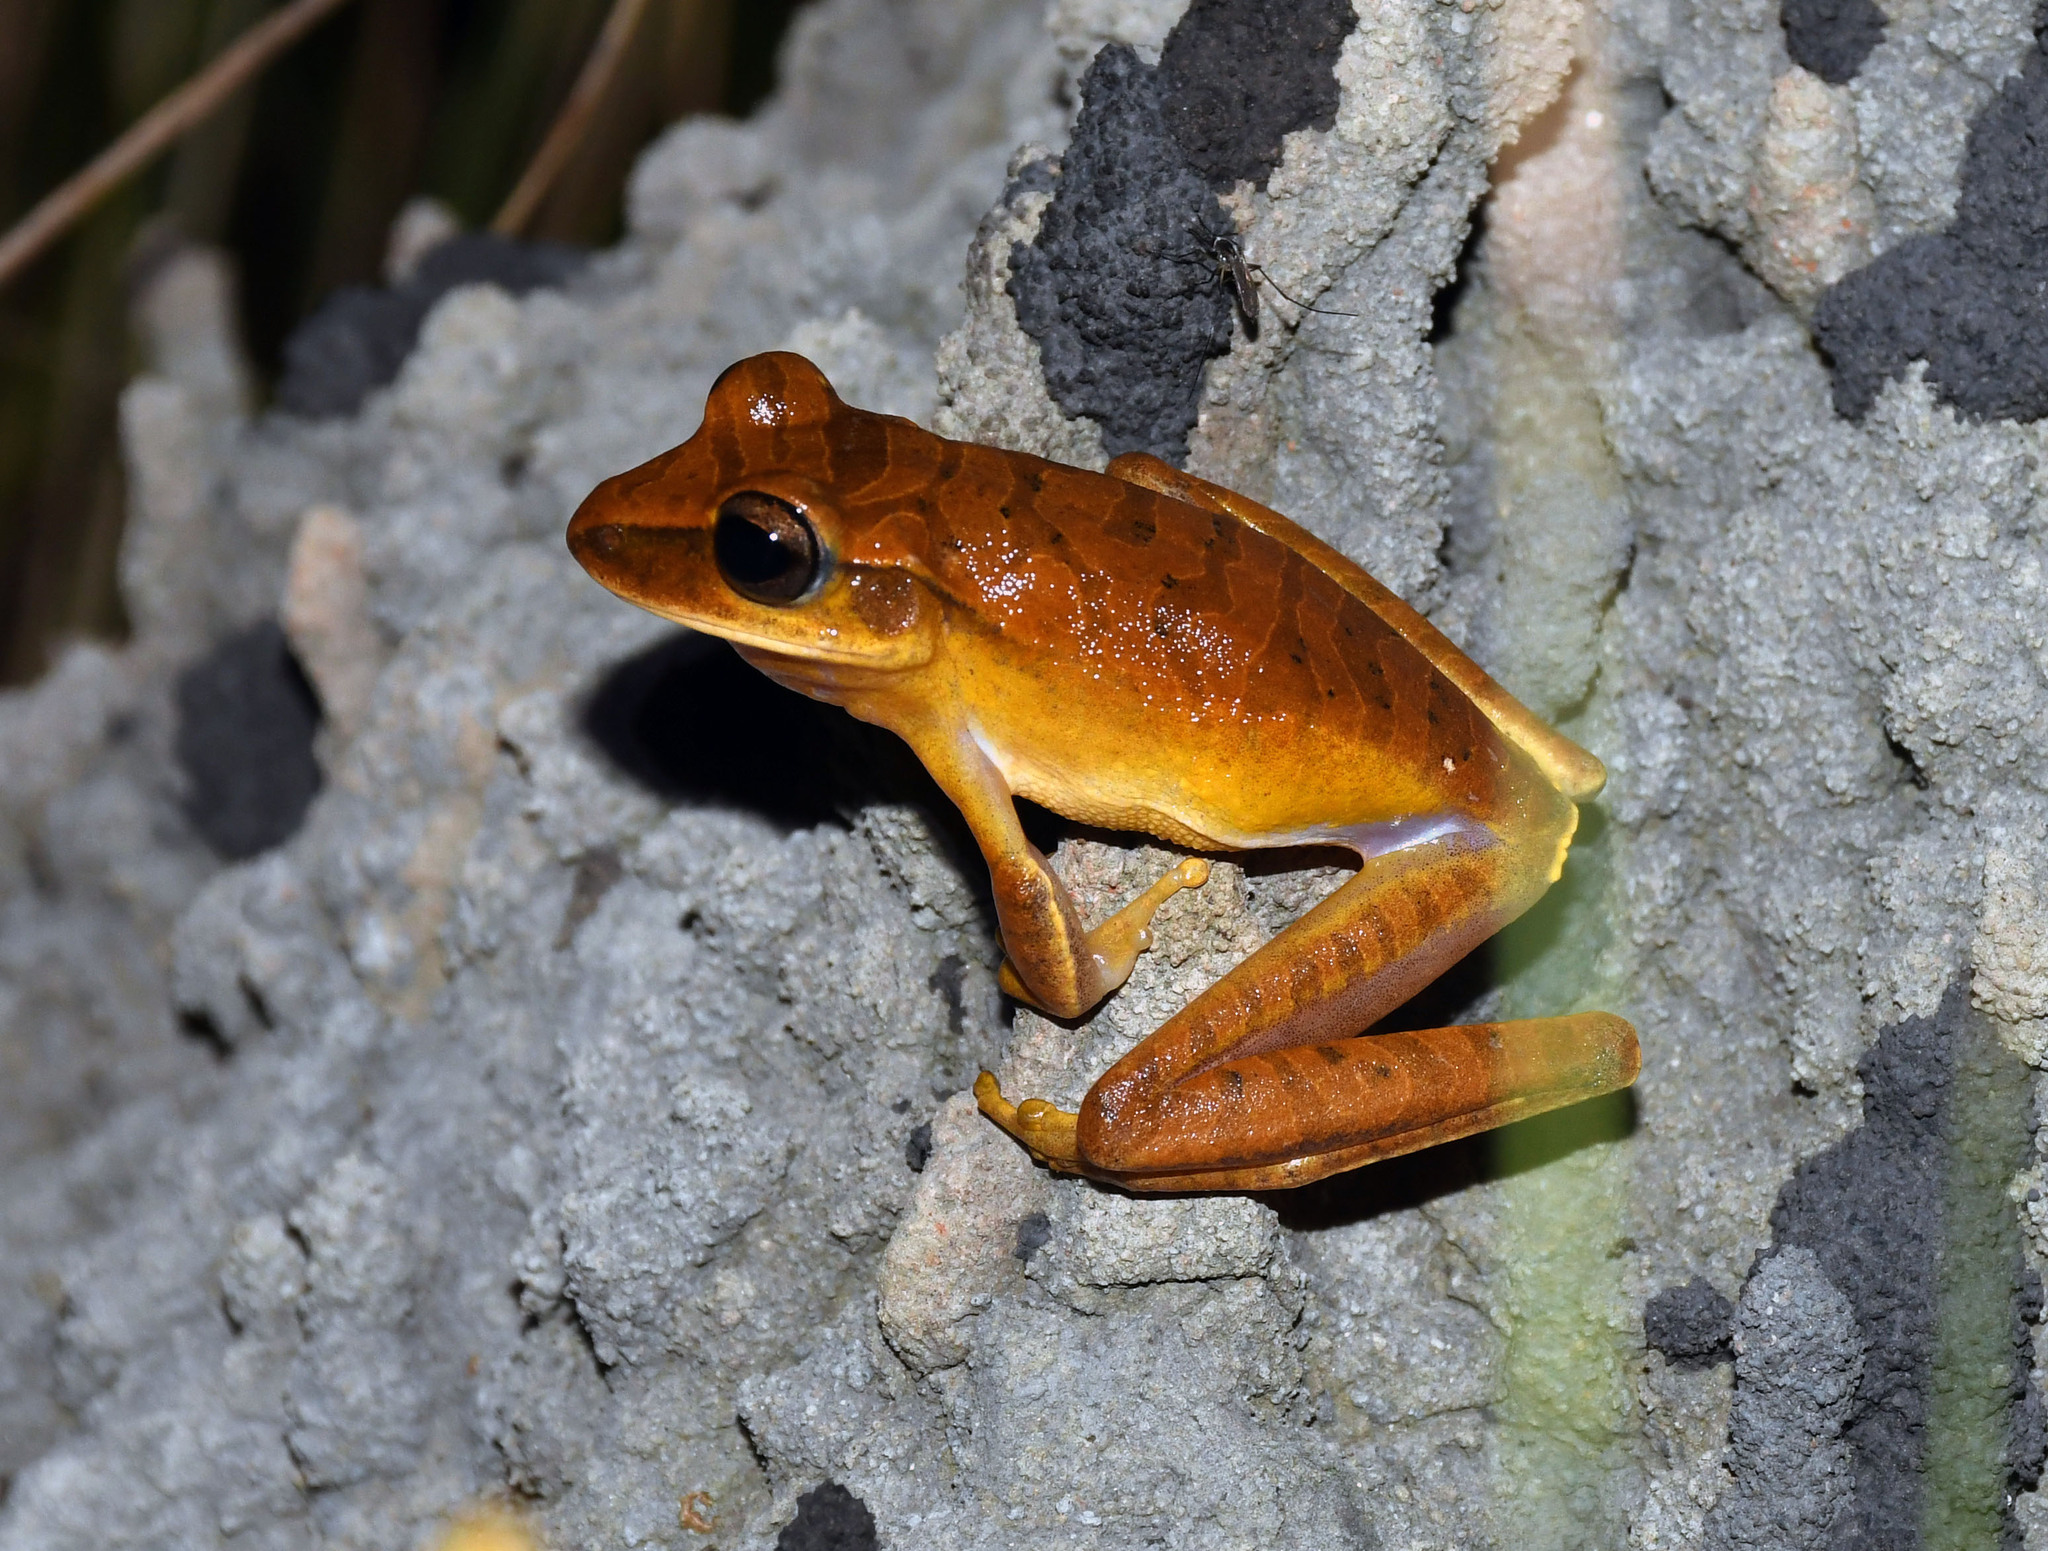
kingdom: Animalia
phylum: Chordata
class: Amphibia
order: Anura
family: Hylidae
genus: Boana
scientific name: Boana raniceps
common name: Chaco treefrog
